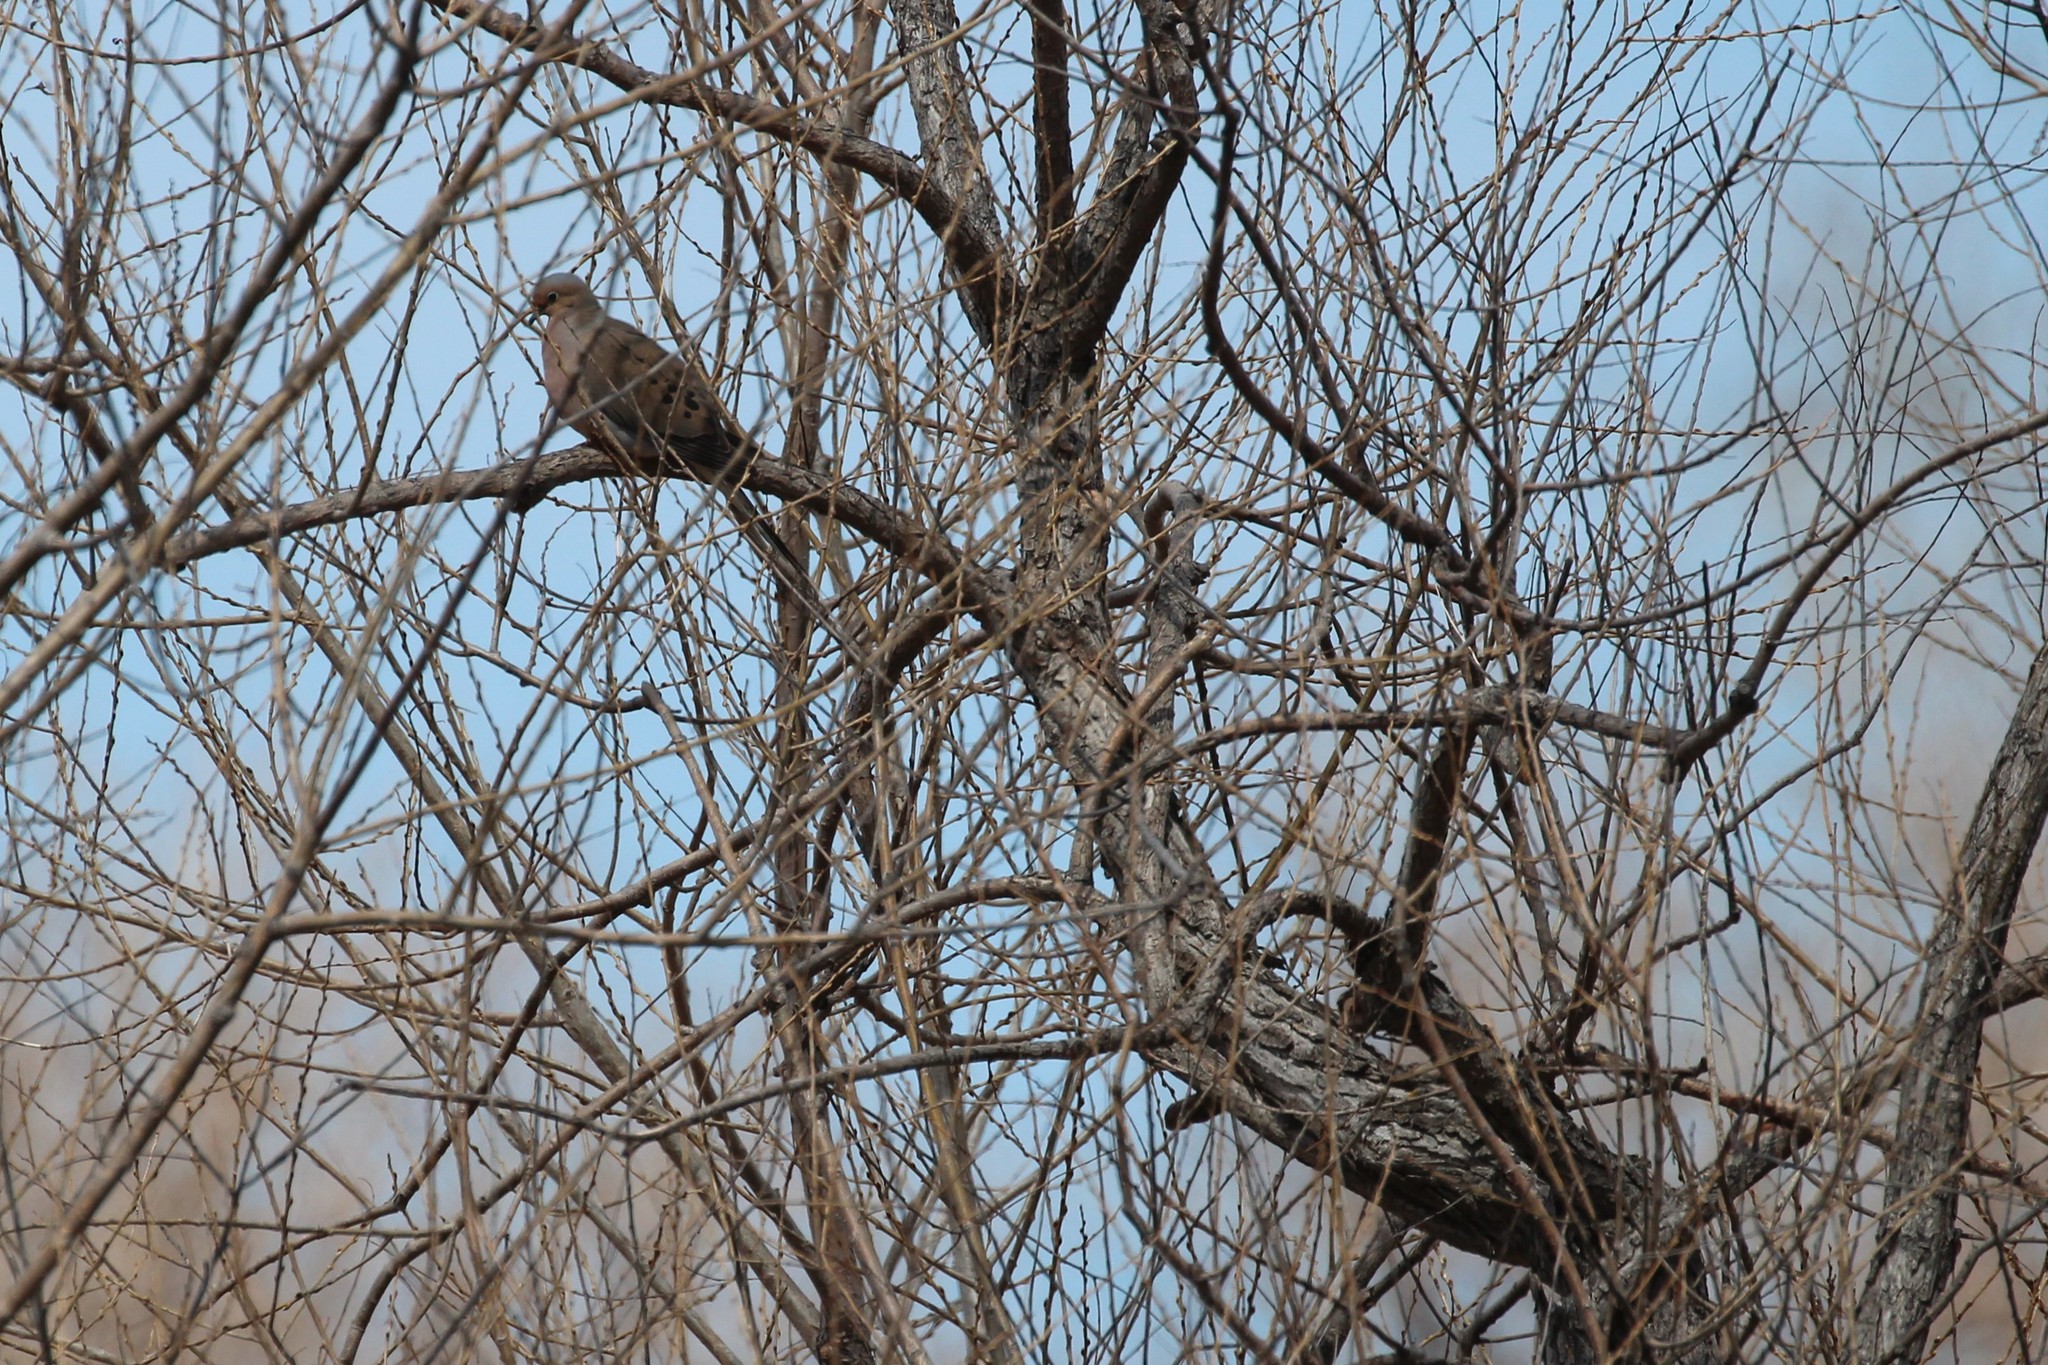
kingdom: Animalia
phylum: Chordata
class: Aves
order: Columbiformes
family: Columbidae
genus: Zenaida
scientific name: Zenaida macroura
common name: Mourning dove
